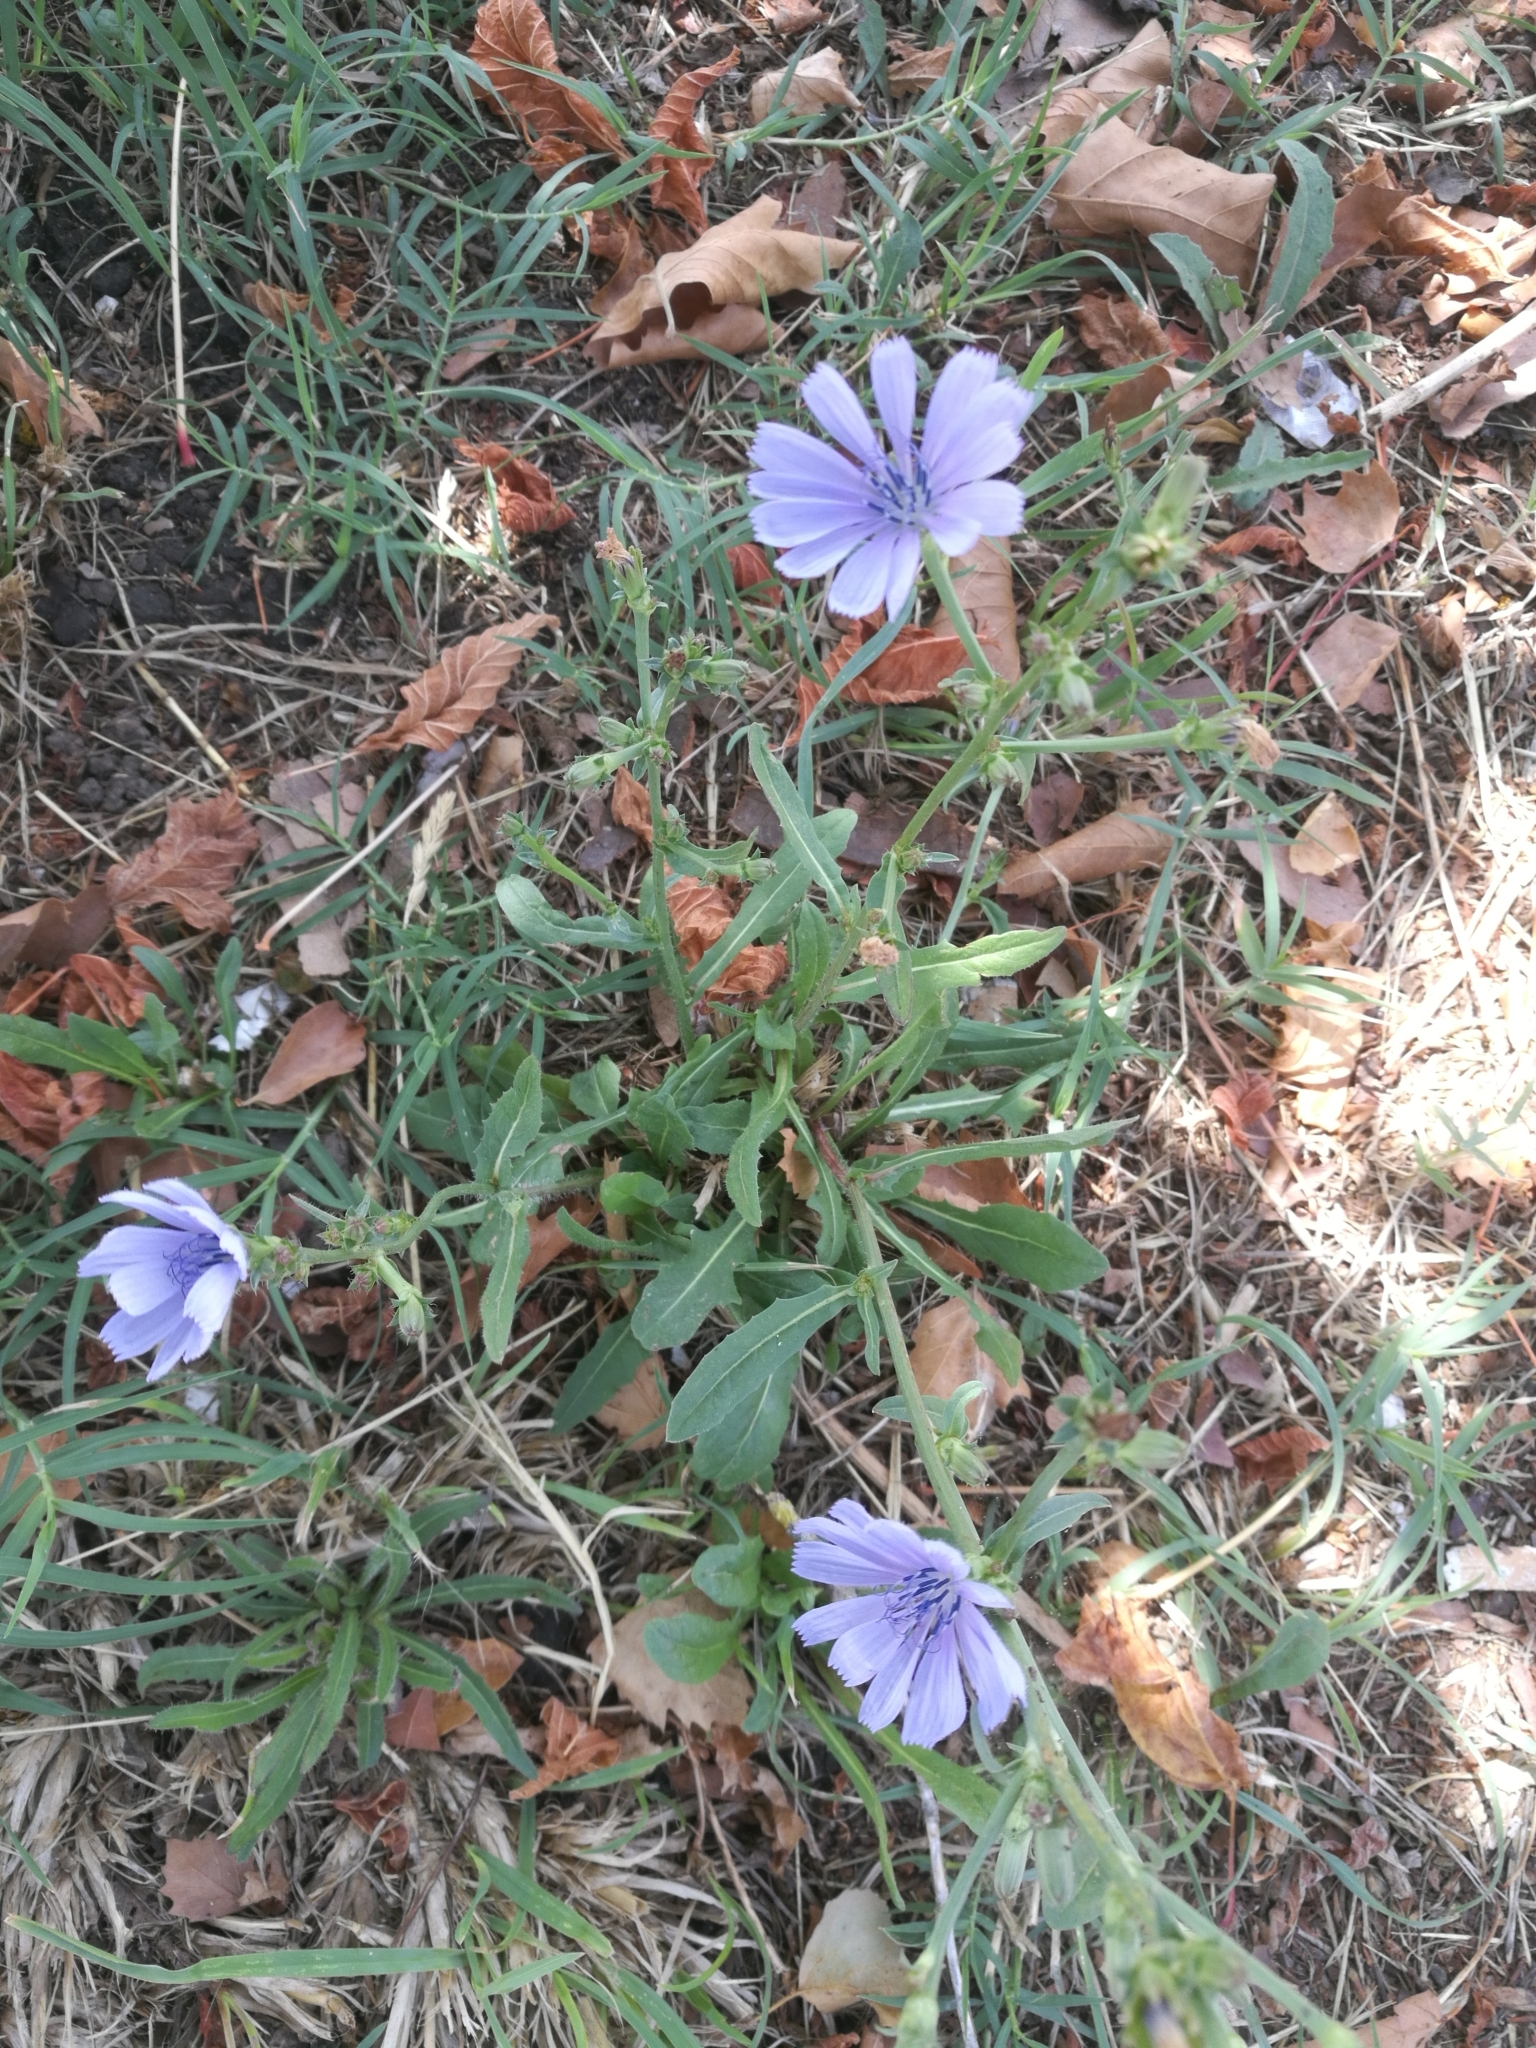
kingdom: Plantae
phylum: Tracheophyta
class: Magnoliopsida
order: Asterales
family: Asteraceae
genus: Cichorium
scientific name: Cichorium intybus
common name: Chicory
